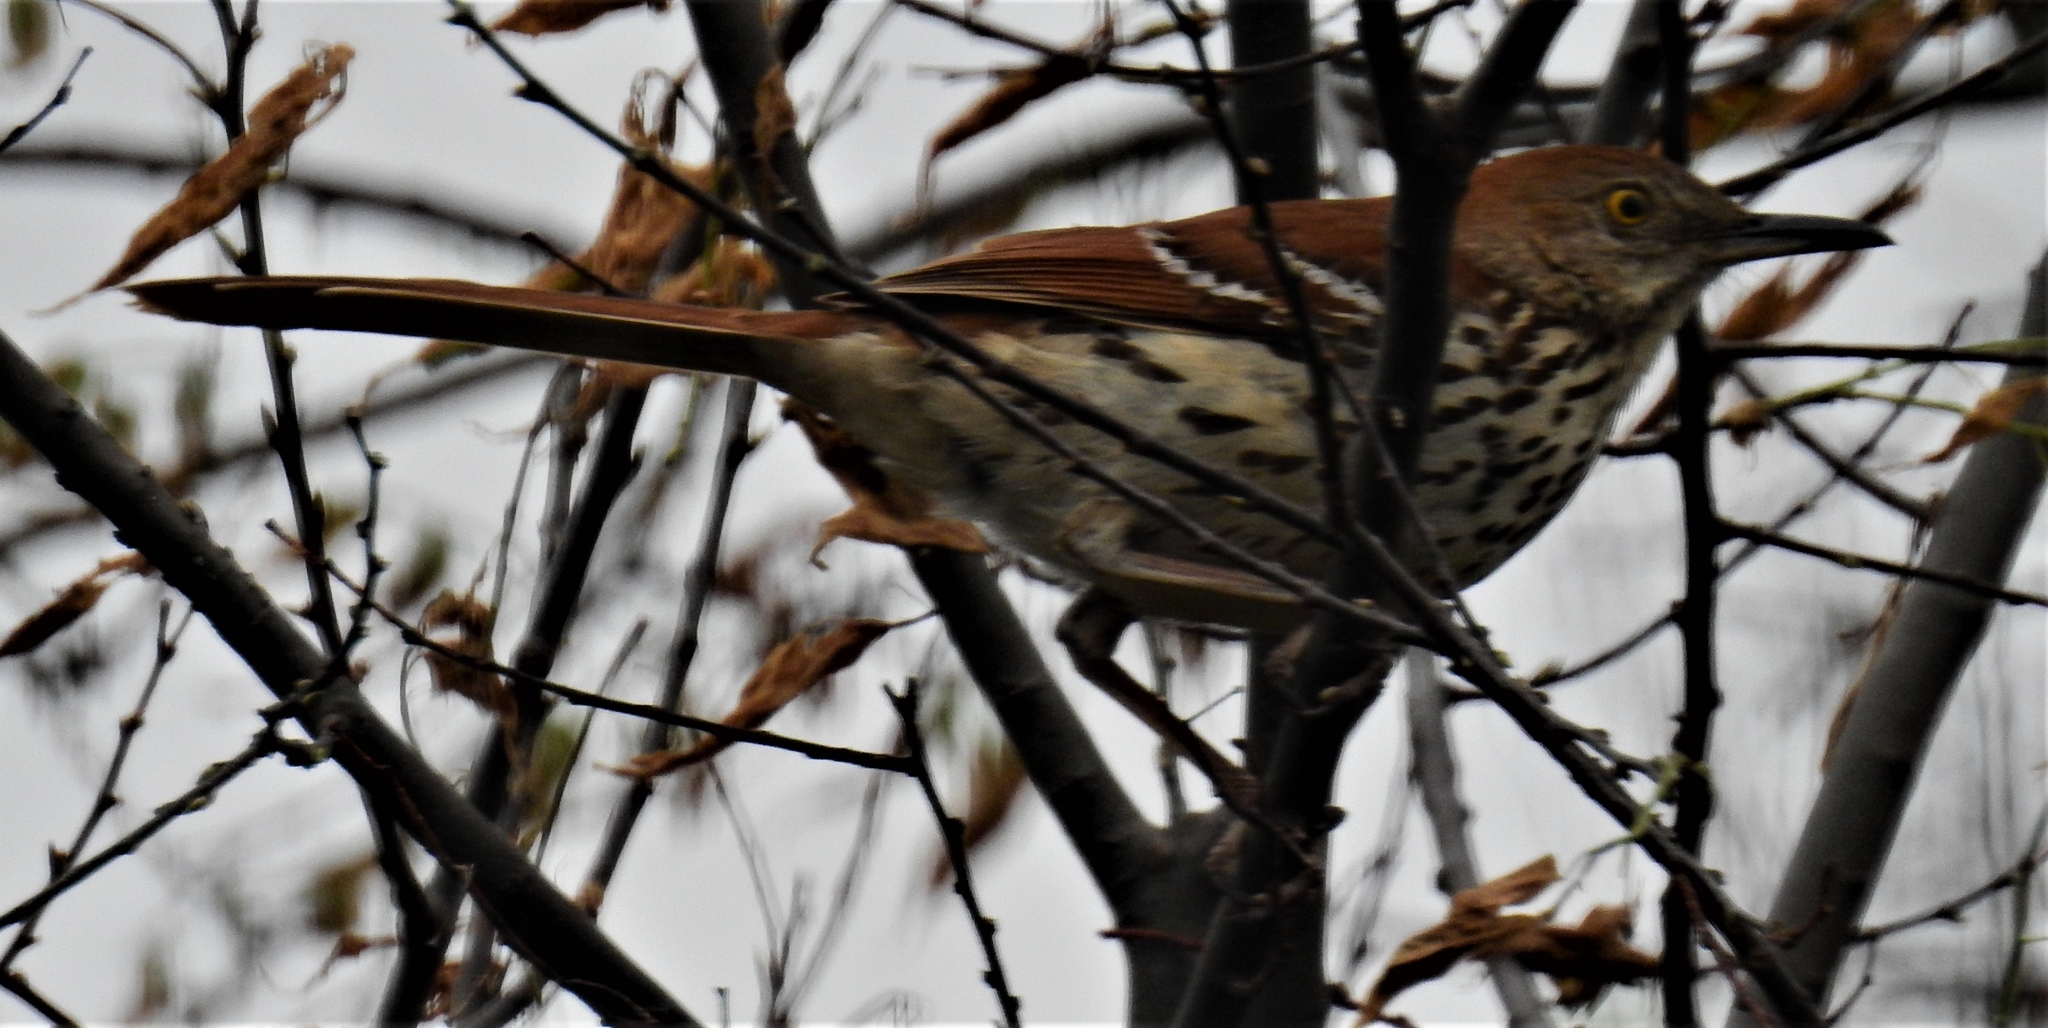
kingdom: Animalia
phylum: Chordata
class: Aves
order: Passeriformes
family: Mimidae
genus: Toxostoma
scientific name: Toxostoma rufum
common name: Brown thrasher
